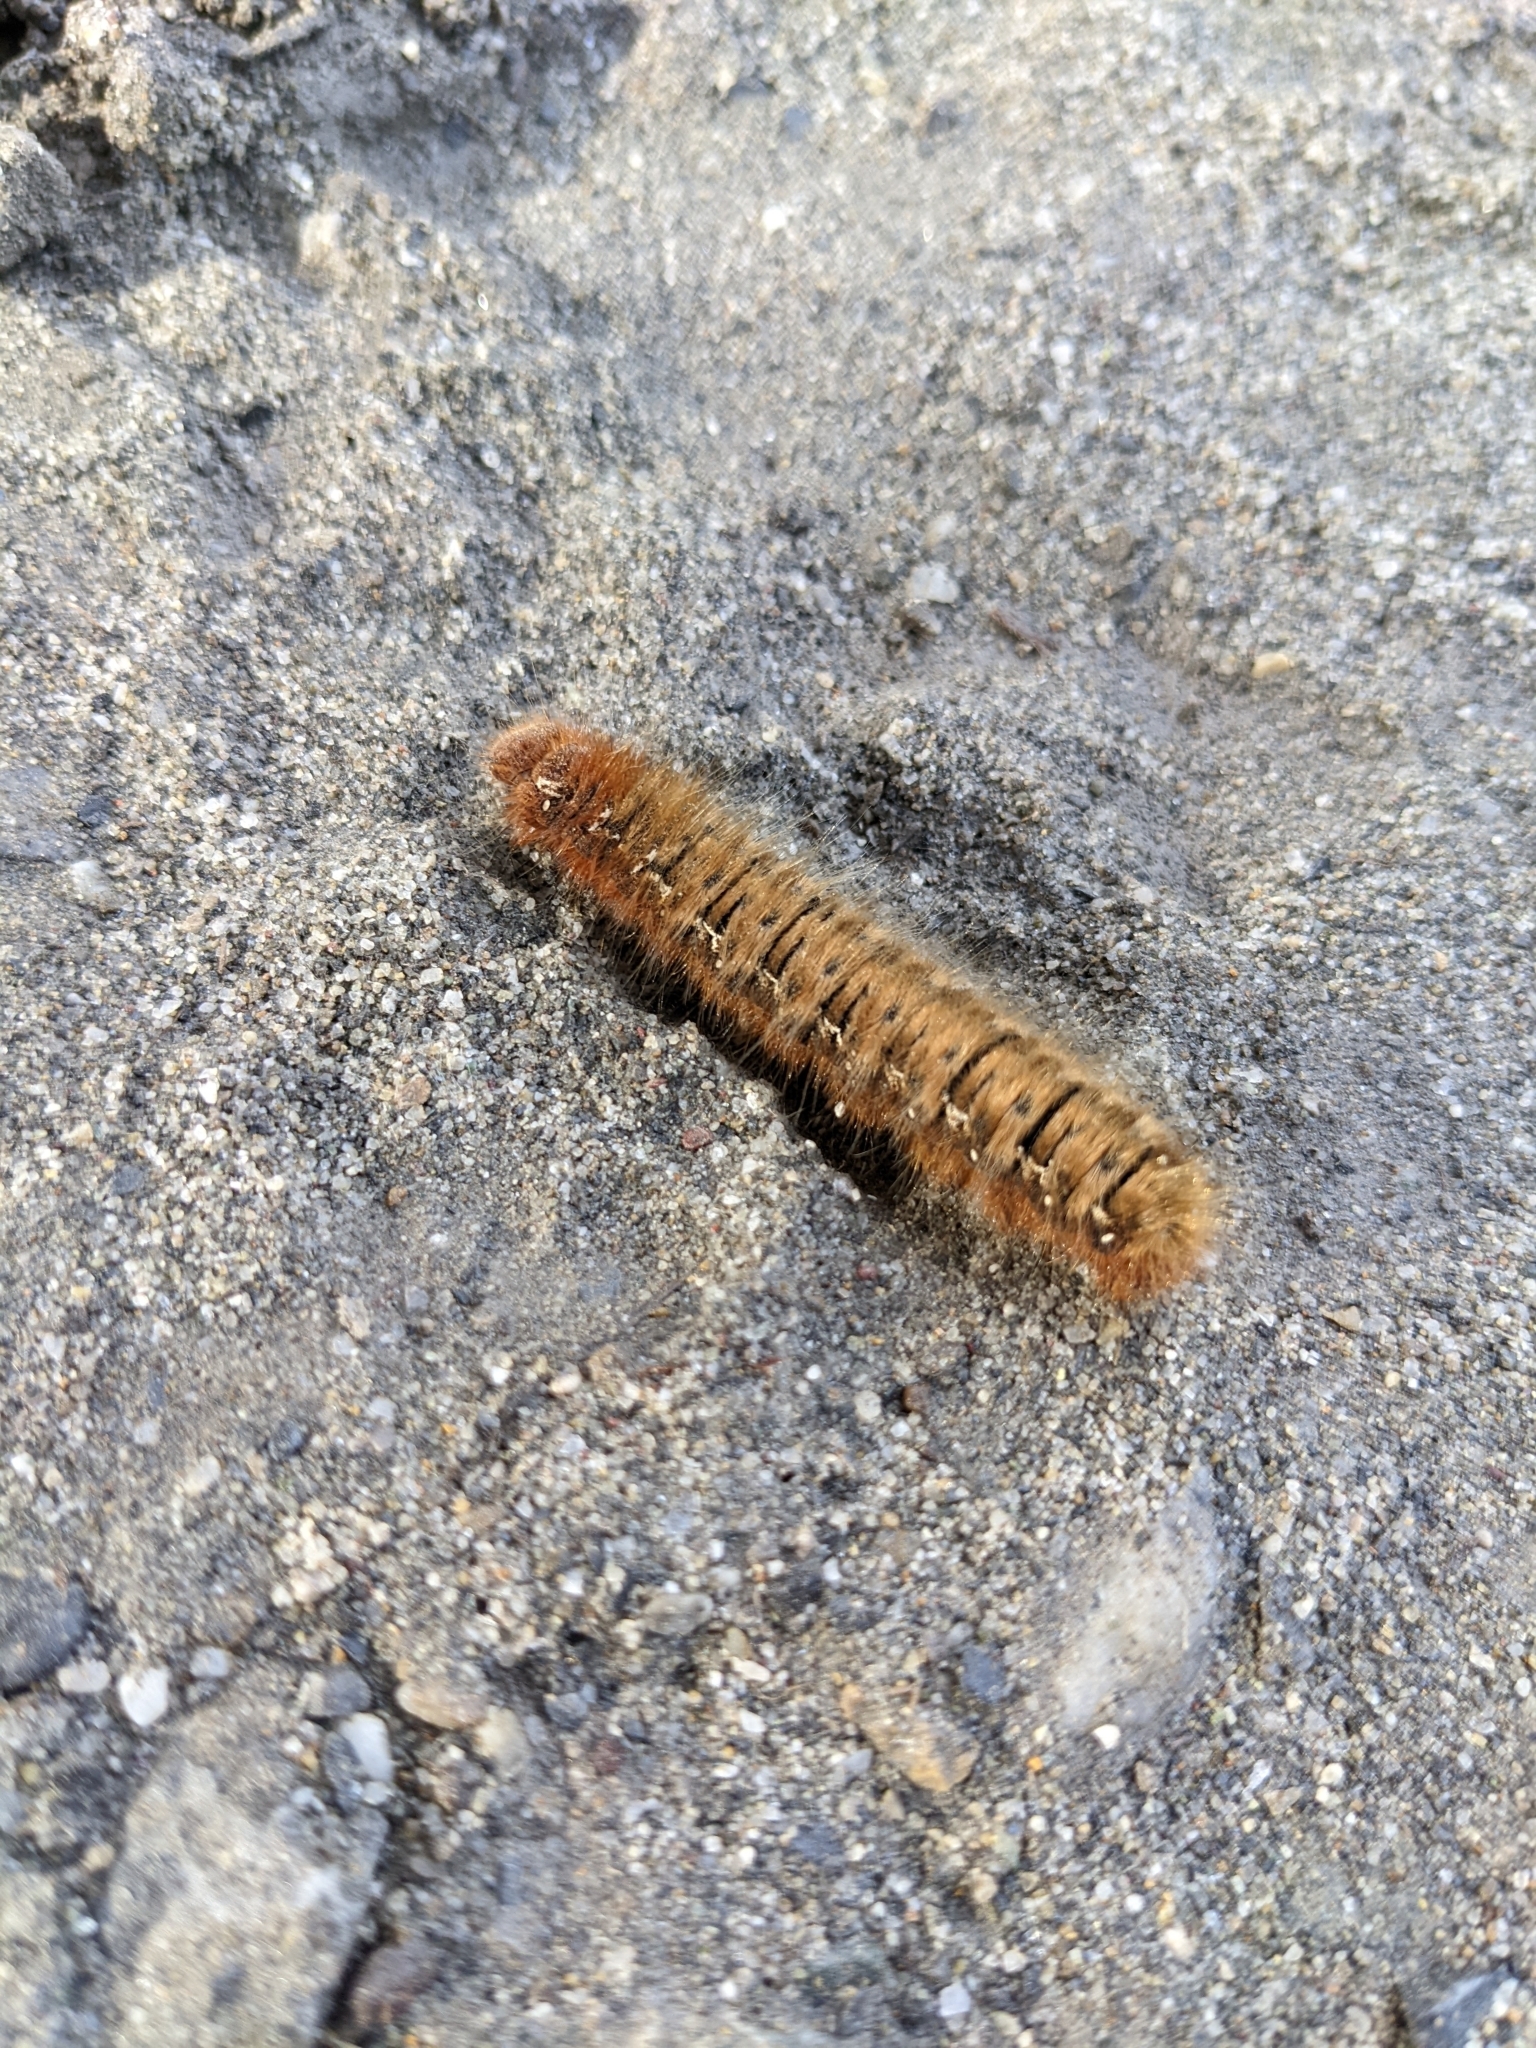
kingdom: Animalia
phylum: Arthropoda
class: Insecta
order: Lepidoptera
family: Lasiocampidae
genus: Lasiocampa
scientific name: Lasiocampa quercus
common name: Oak eggar
